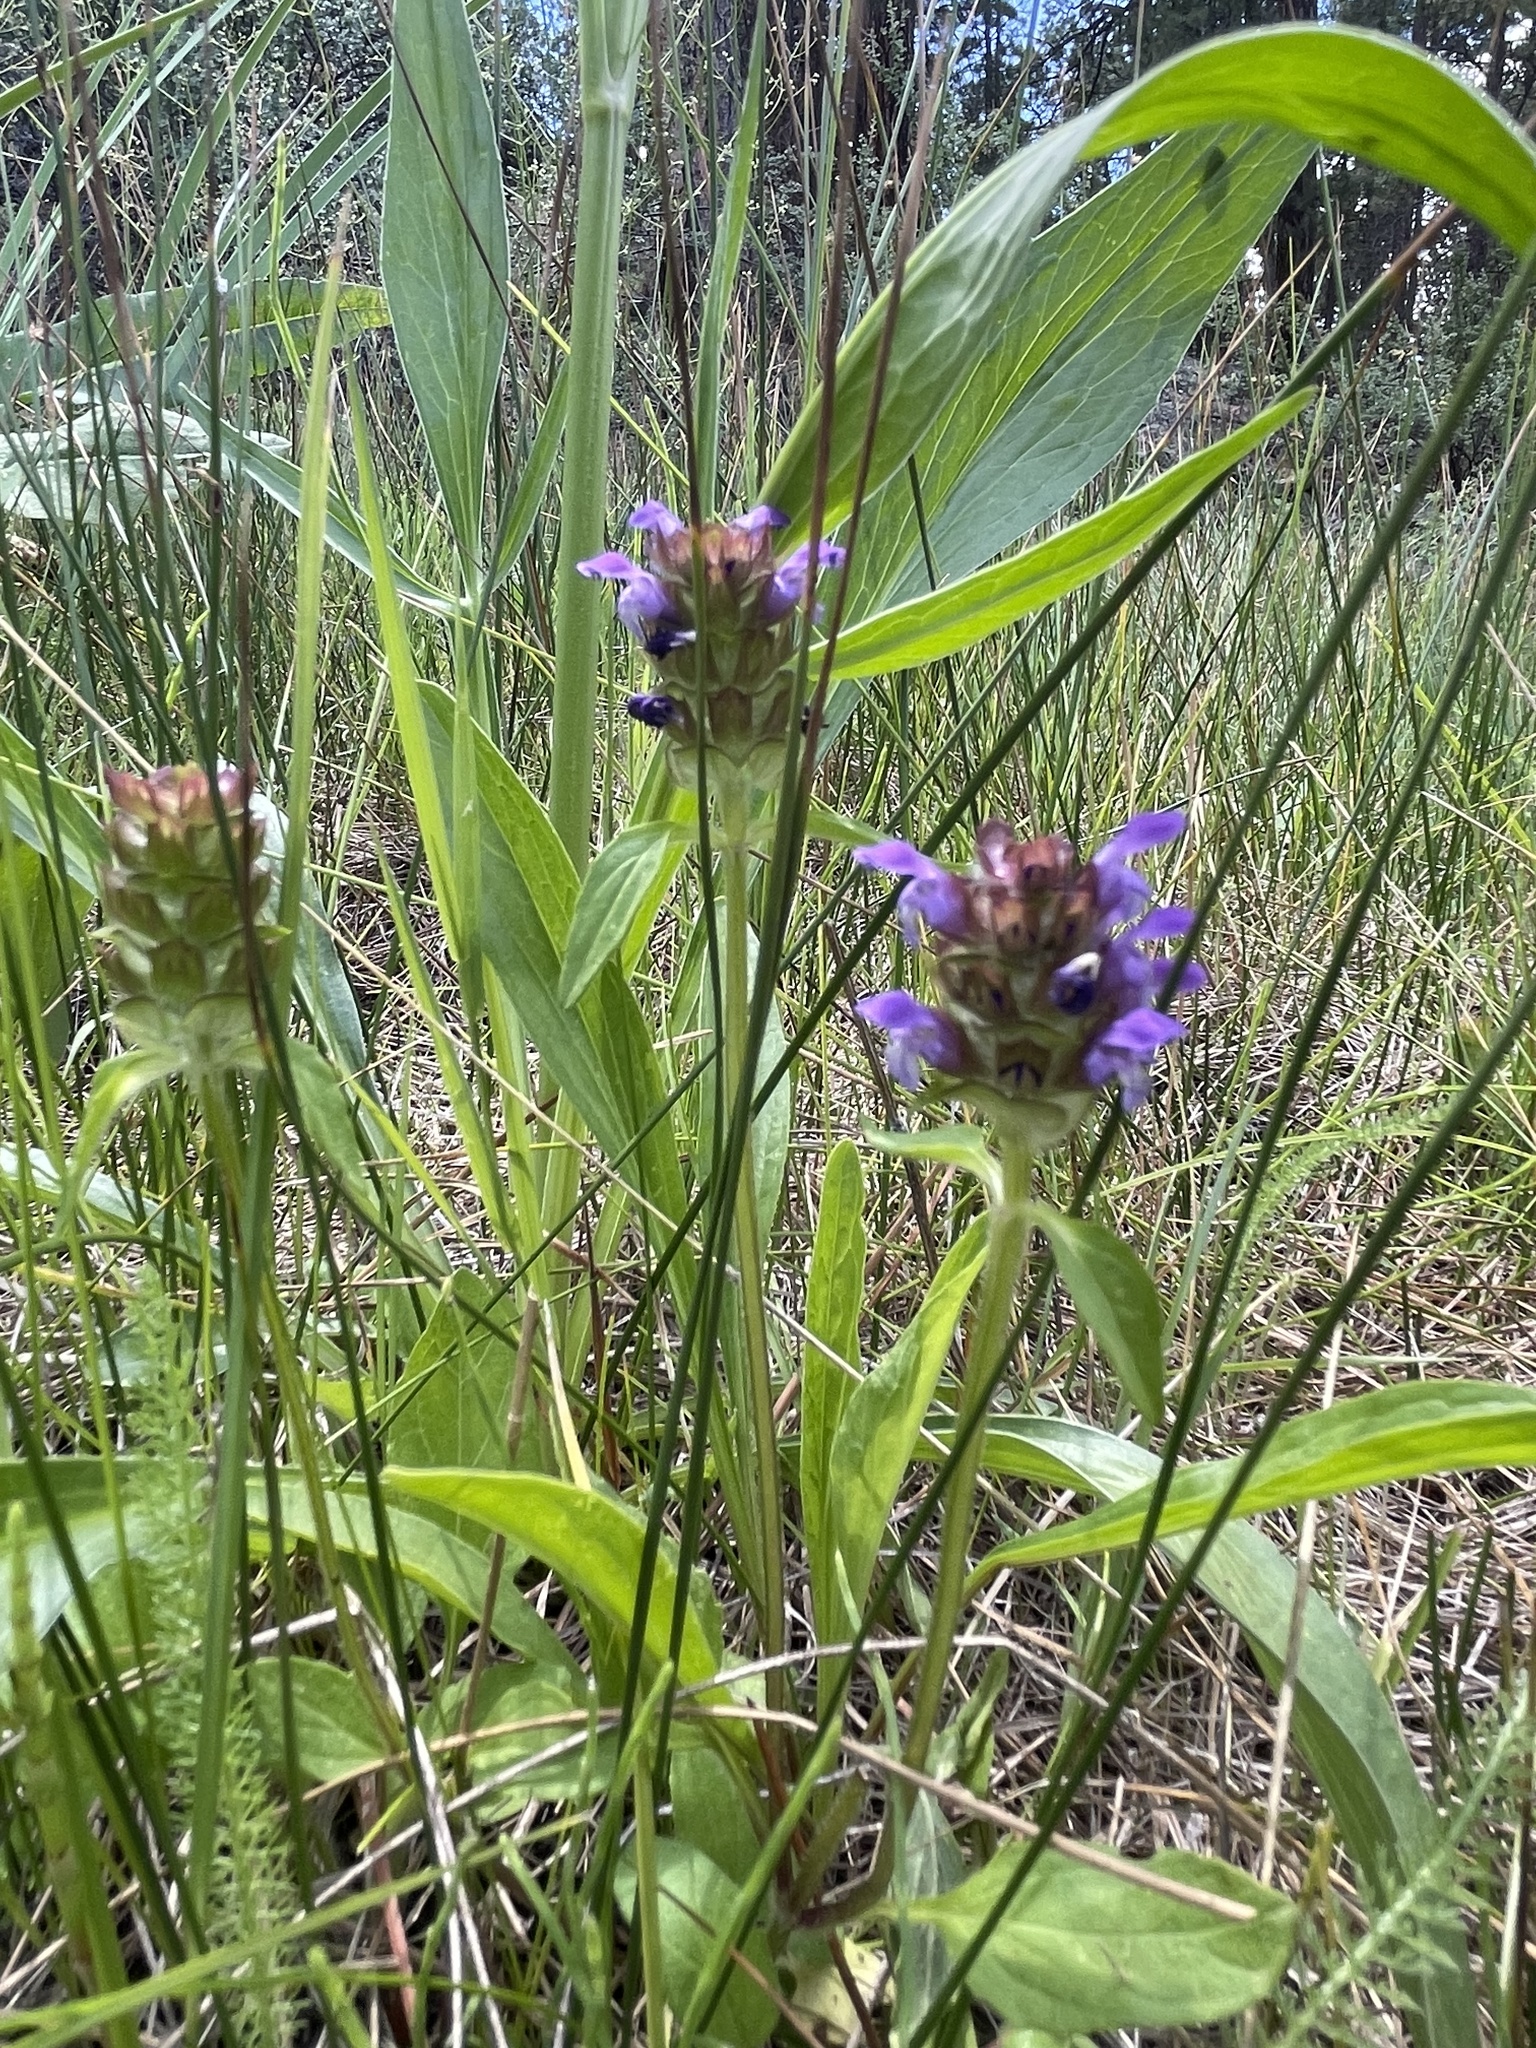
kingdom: Plantae
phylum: Tracheophyta
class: Magnoliopsida
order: Lamiales
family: Lamiaceae
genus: Prunella
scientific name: Prunella vulgaris
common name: Heal-all
